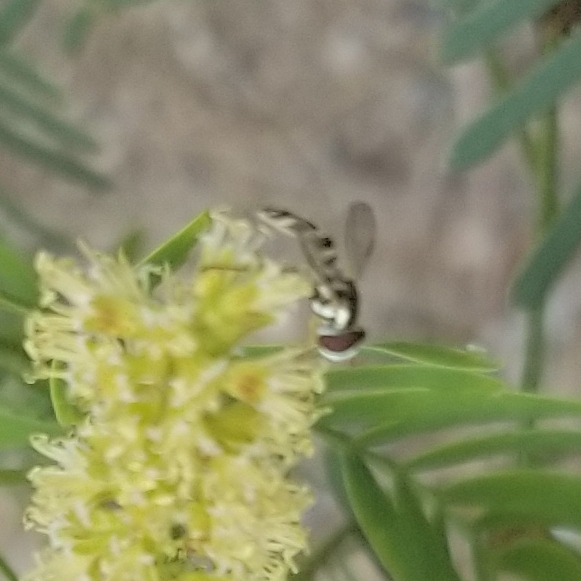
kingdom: Animalia
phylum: Arthropoda
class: Insecta
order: Diptera
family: Syrphidae
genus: Allograpta
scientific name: Allograpta exotica
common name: Syrphid fly
